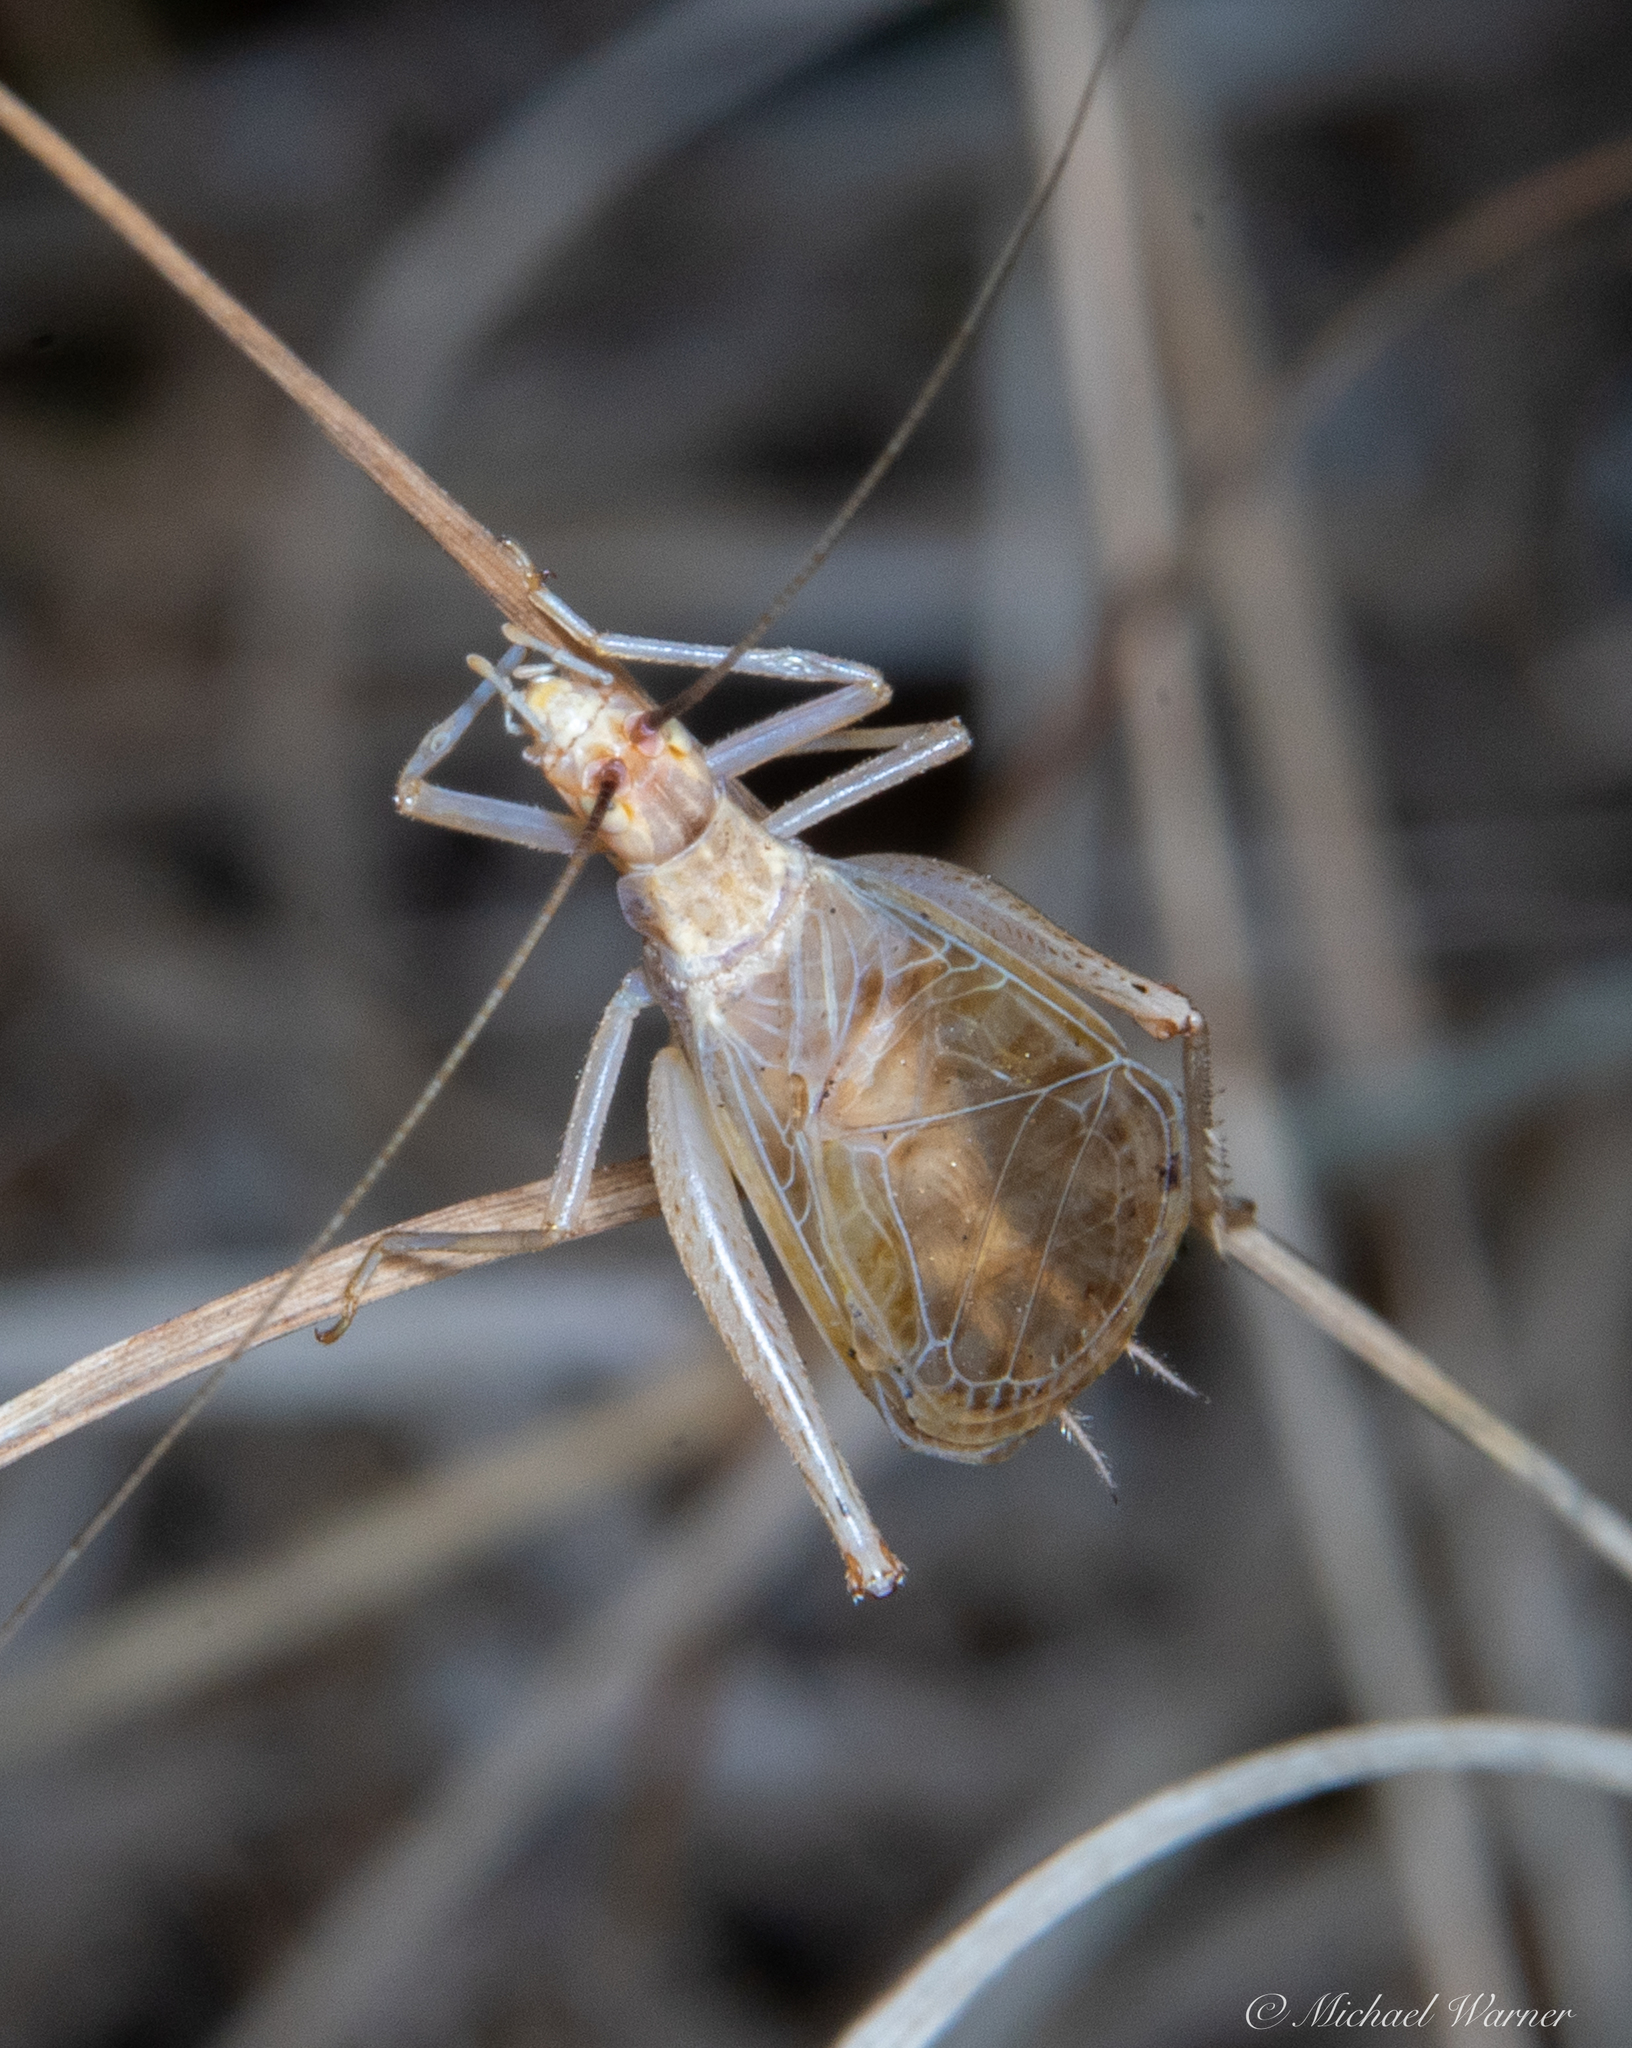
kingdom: Animalia
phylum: Arthropoda
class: Insecta
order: Orthoptera
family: Gryllidae
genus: Oecanthus
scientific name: Oecanthus californicus
